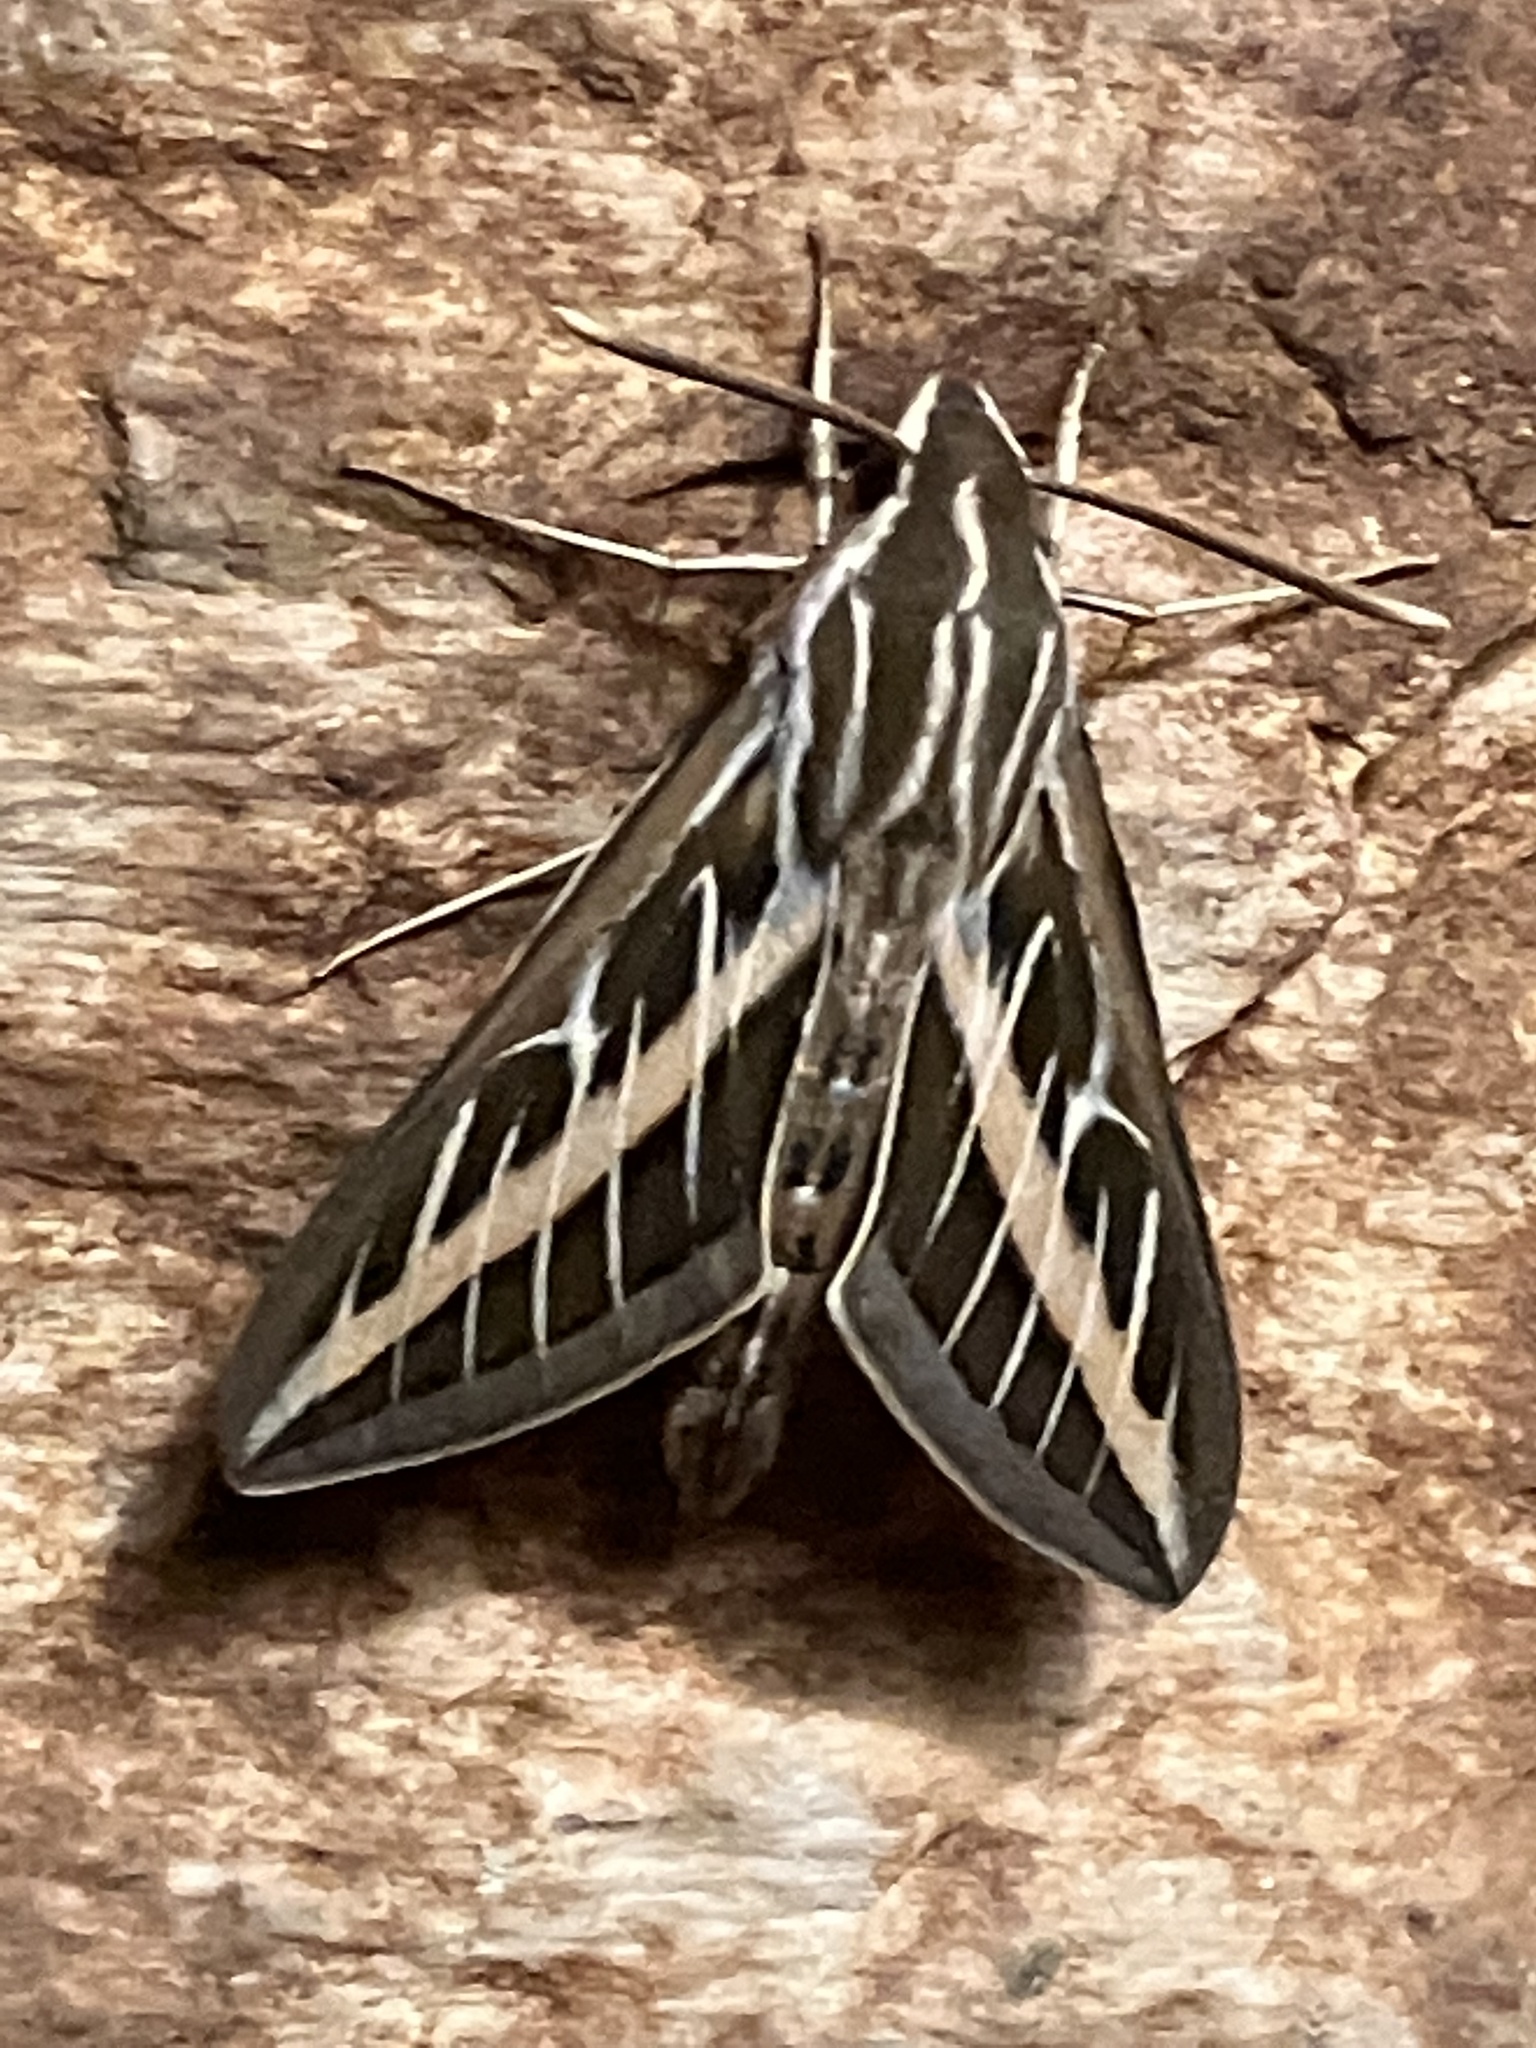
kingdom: Animalia
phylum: Arthropoda
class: Insecta
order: Lepidoptera
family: Sphingidae
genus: Hyles
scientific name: Hyles lineata
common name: White-lined sphinx
